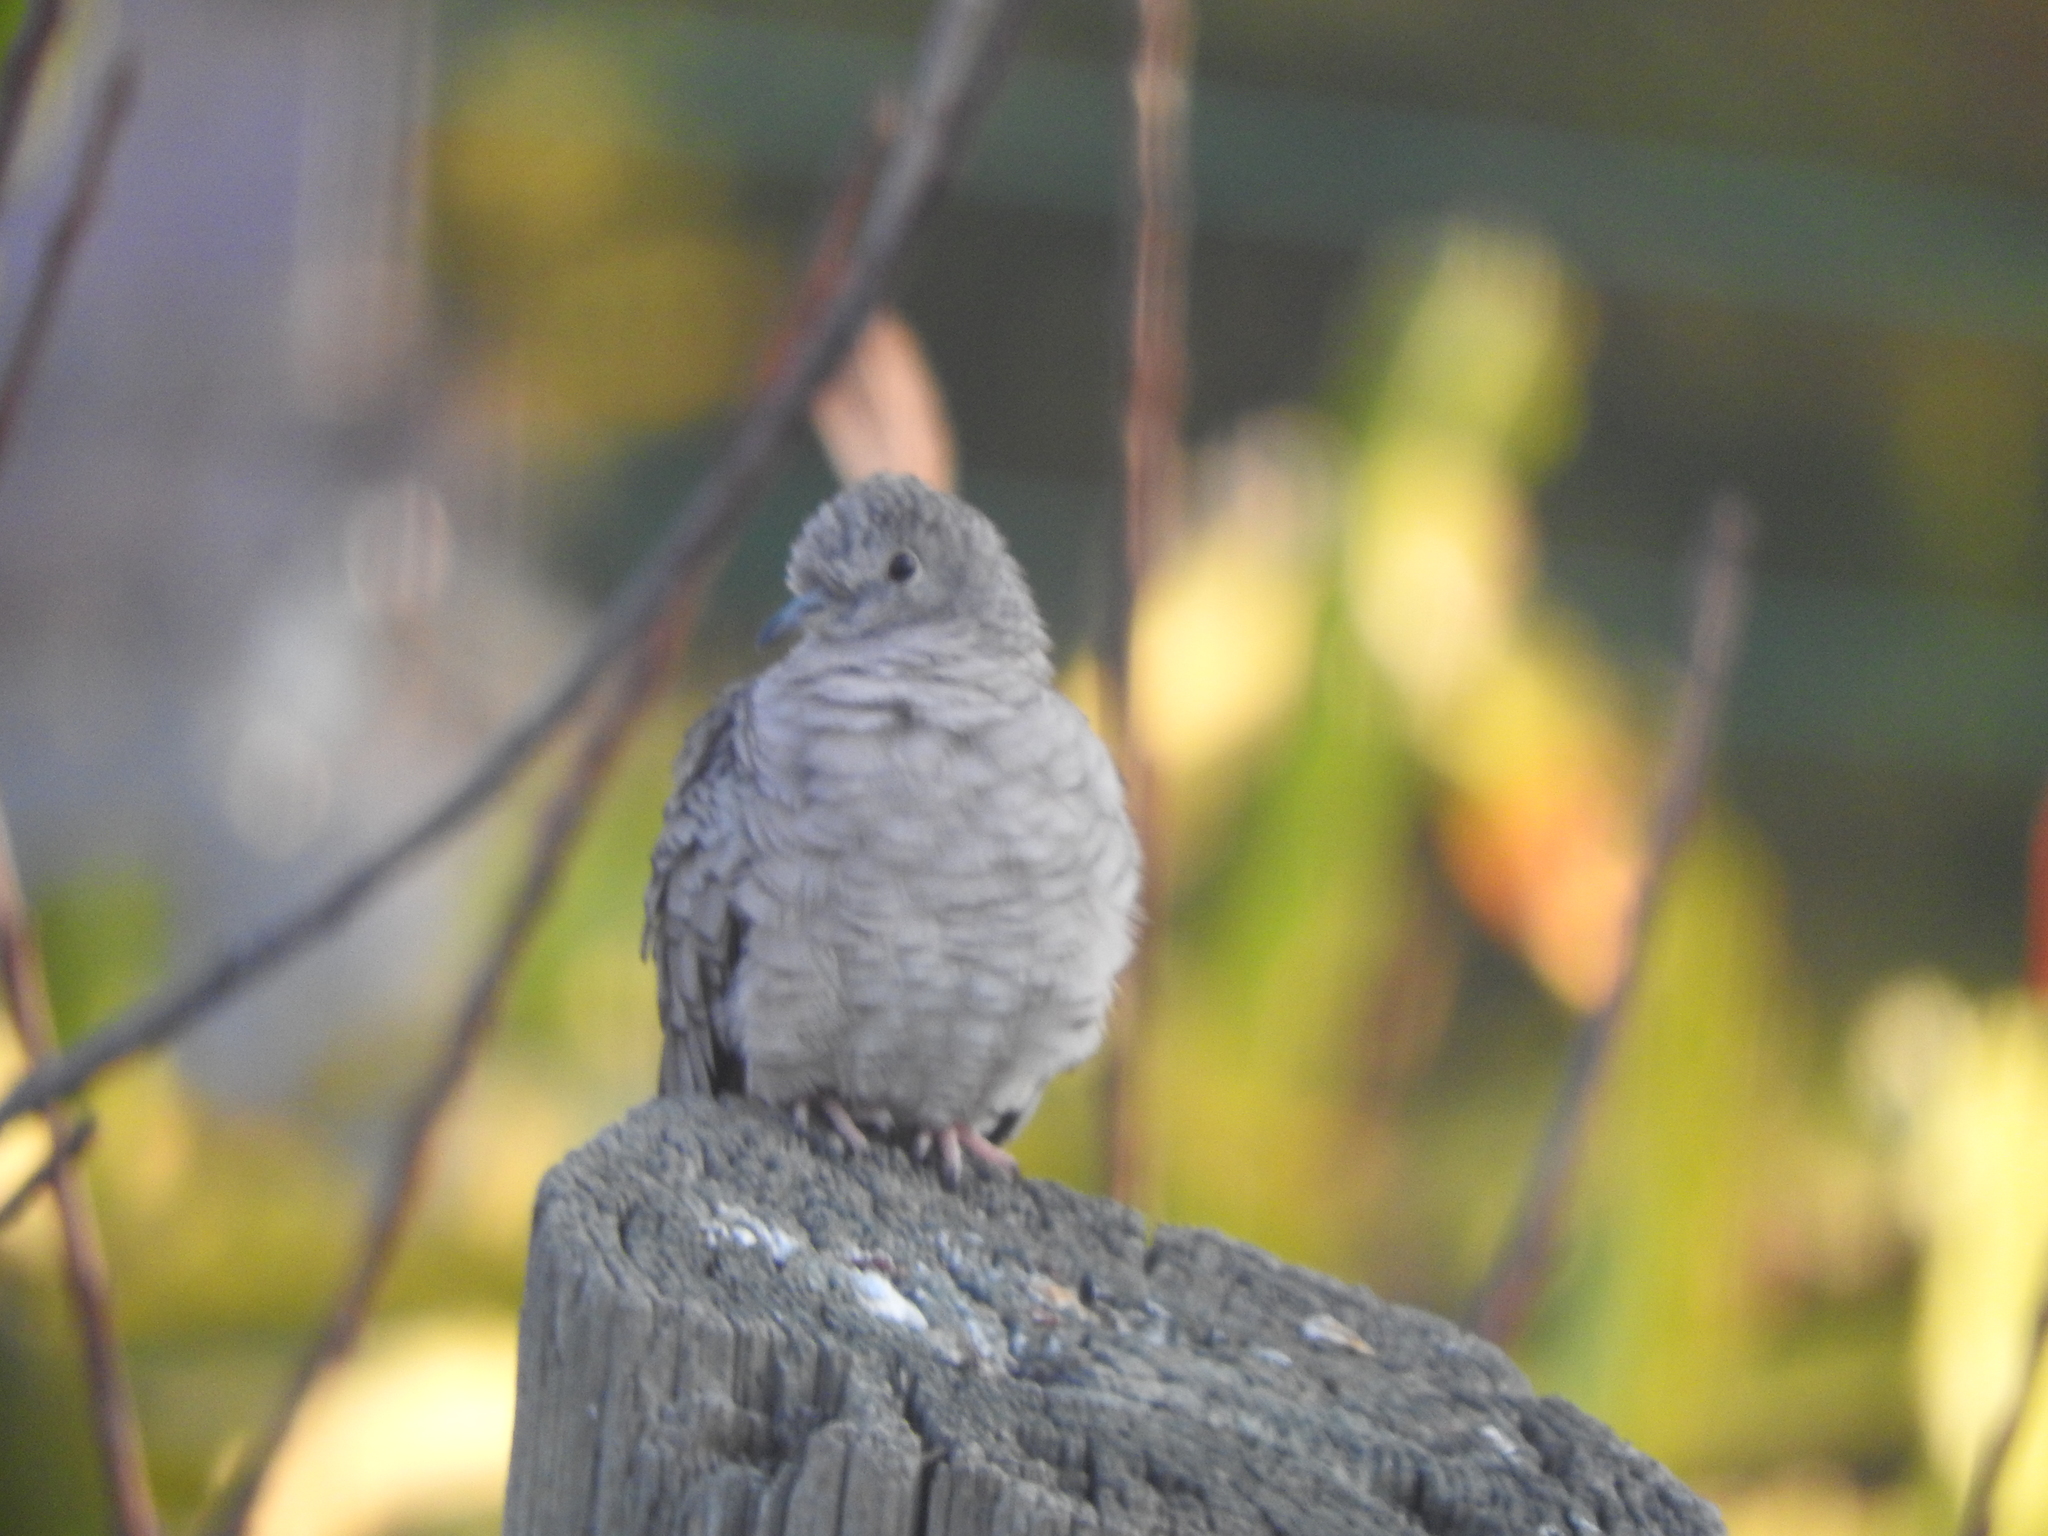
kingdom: Animalia
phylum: Chordata
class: Aves
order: Columbiformes
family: Columbidae
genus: Columbina
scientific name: Columbina inca
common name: Inca dove
